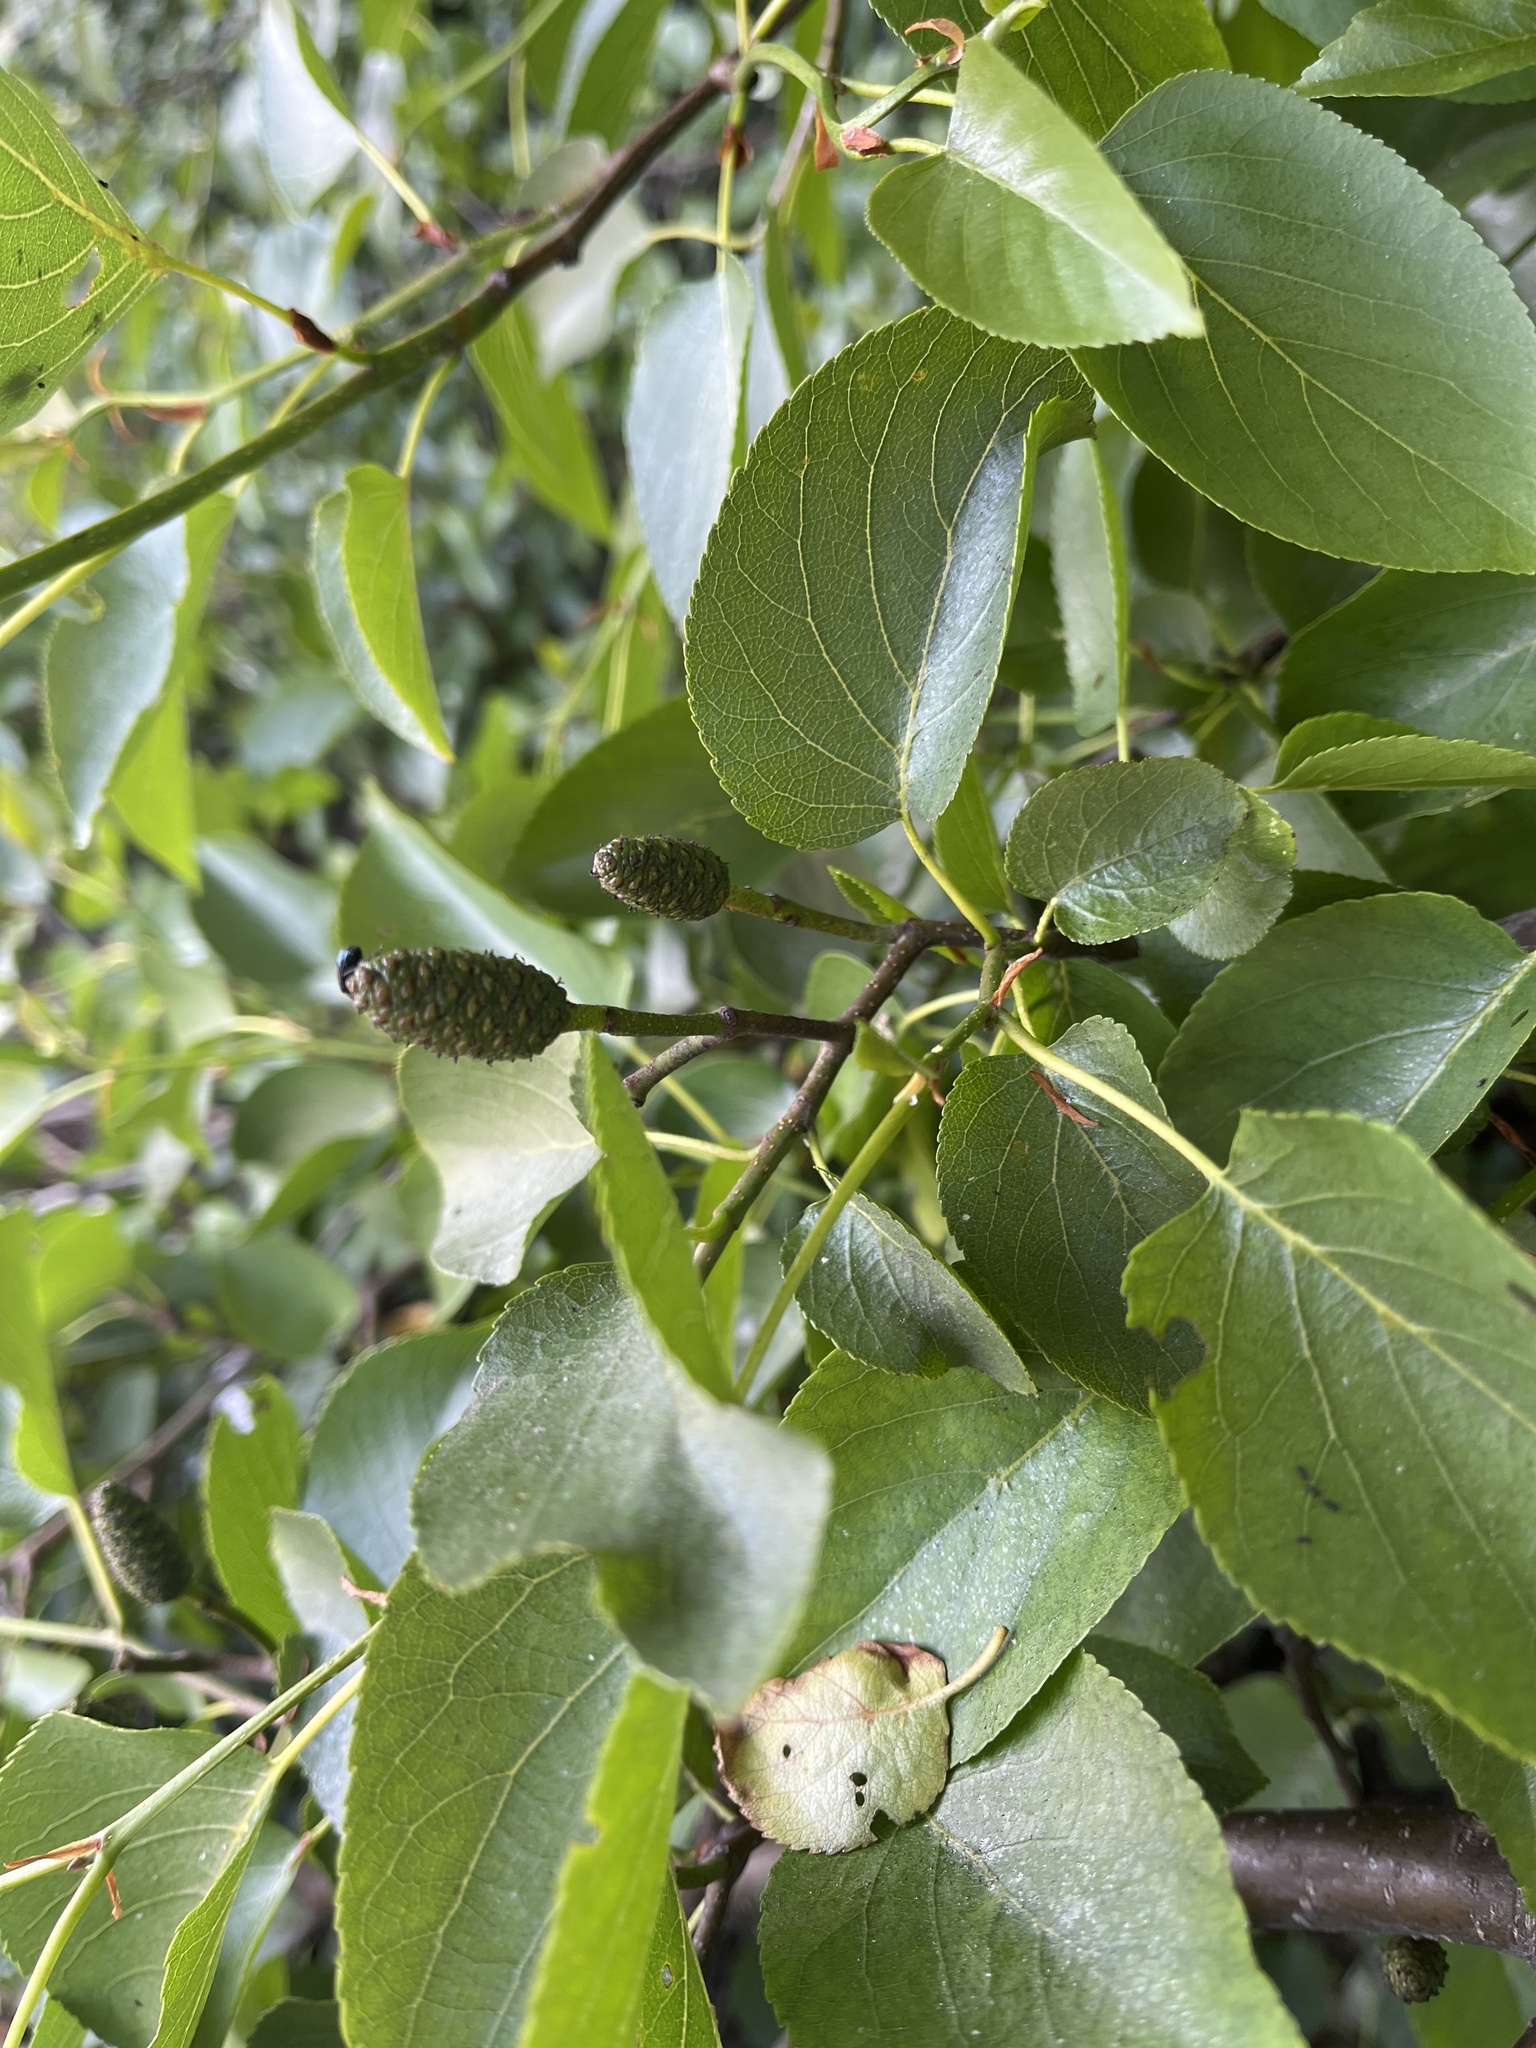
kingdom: Plantae
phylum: Tracheophyta
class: Magnoliopsida
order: Fagales
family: Betulaceae
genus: Alnus
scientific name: Alnus cordata
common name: Italian alder
